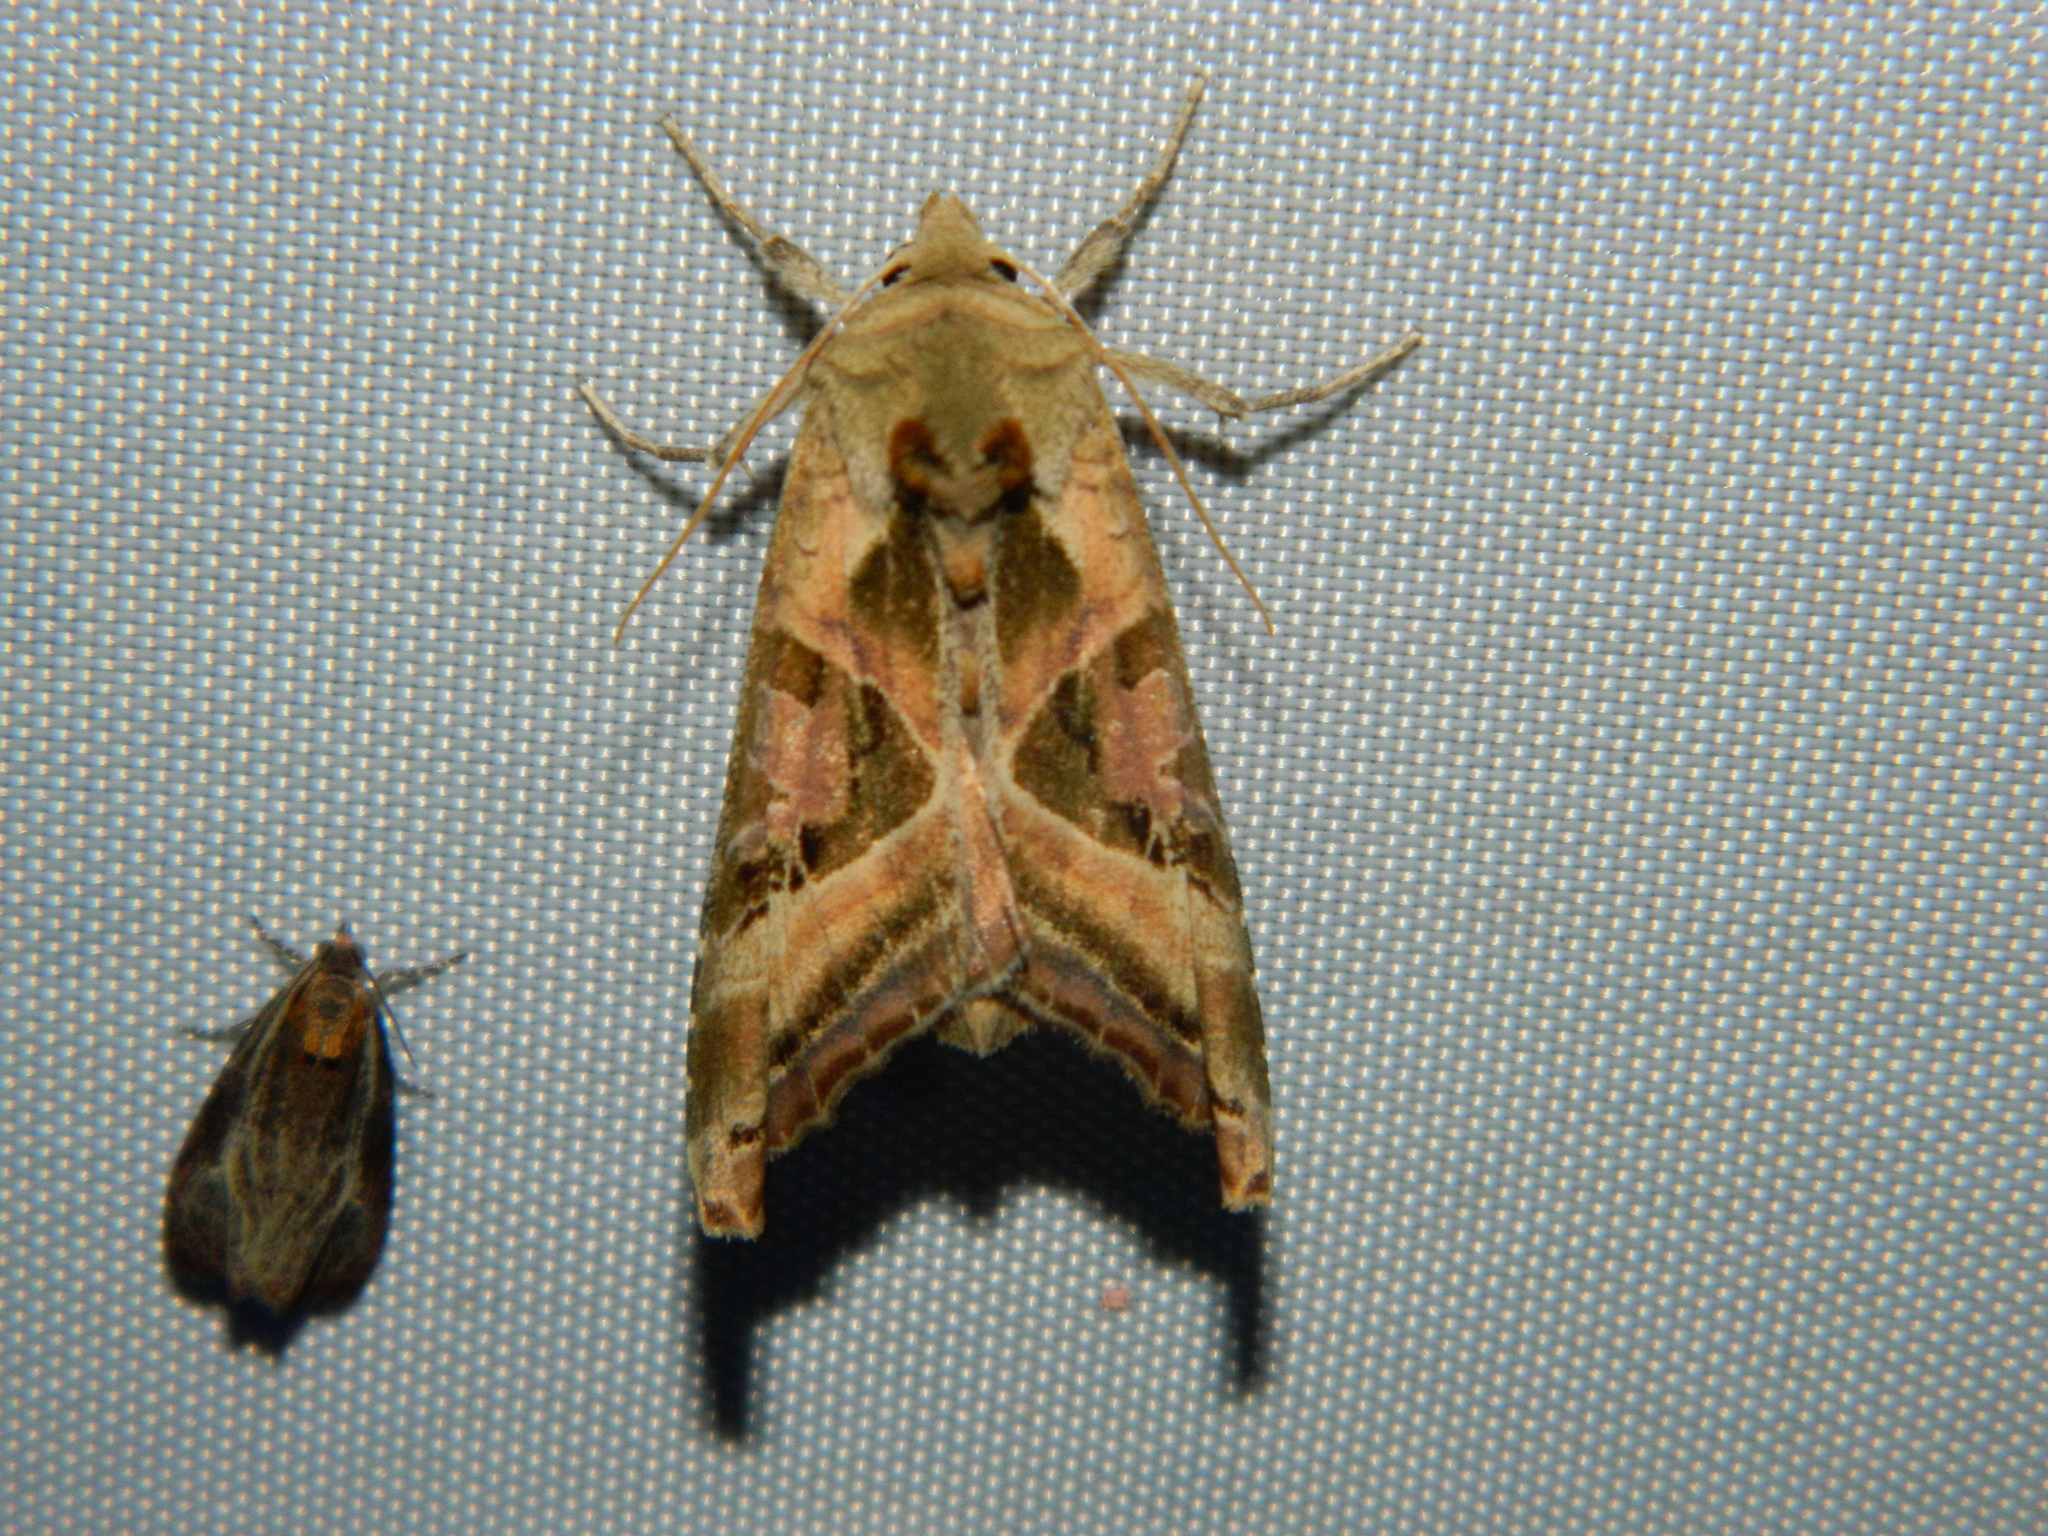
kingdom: Animalia
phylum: Arthropoda
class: Insecta
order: Lepidoptera
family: Noctuidae
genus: Phlogophora
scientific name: Phlogophora iris
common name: Olive angle shades
